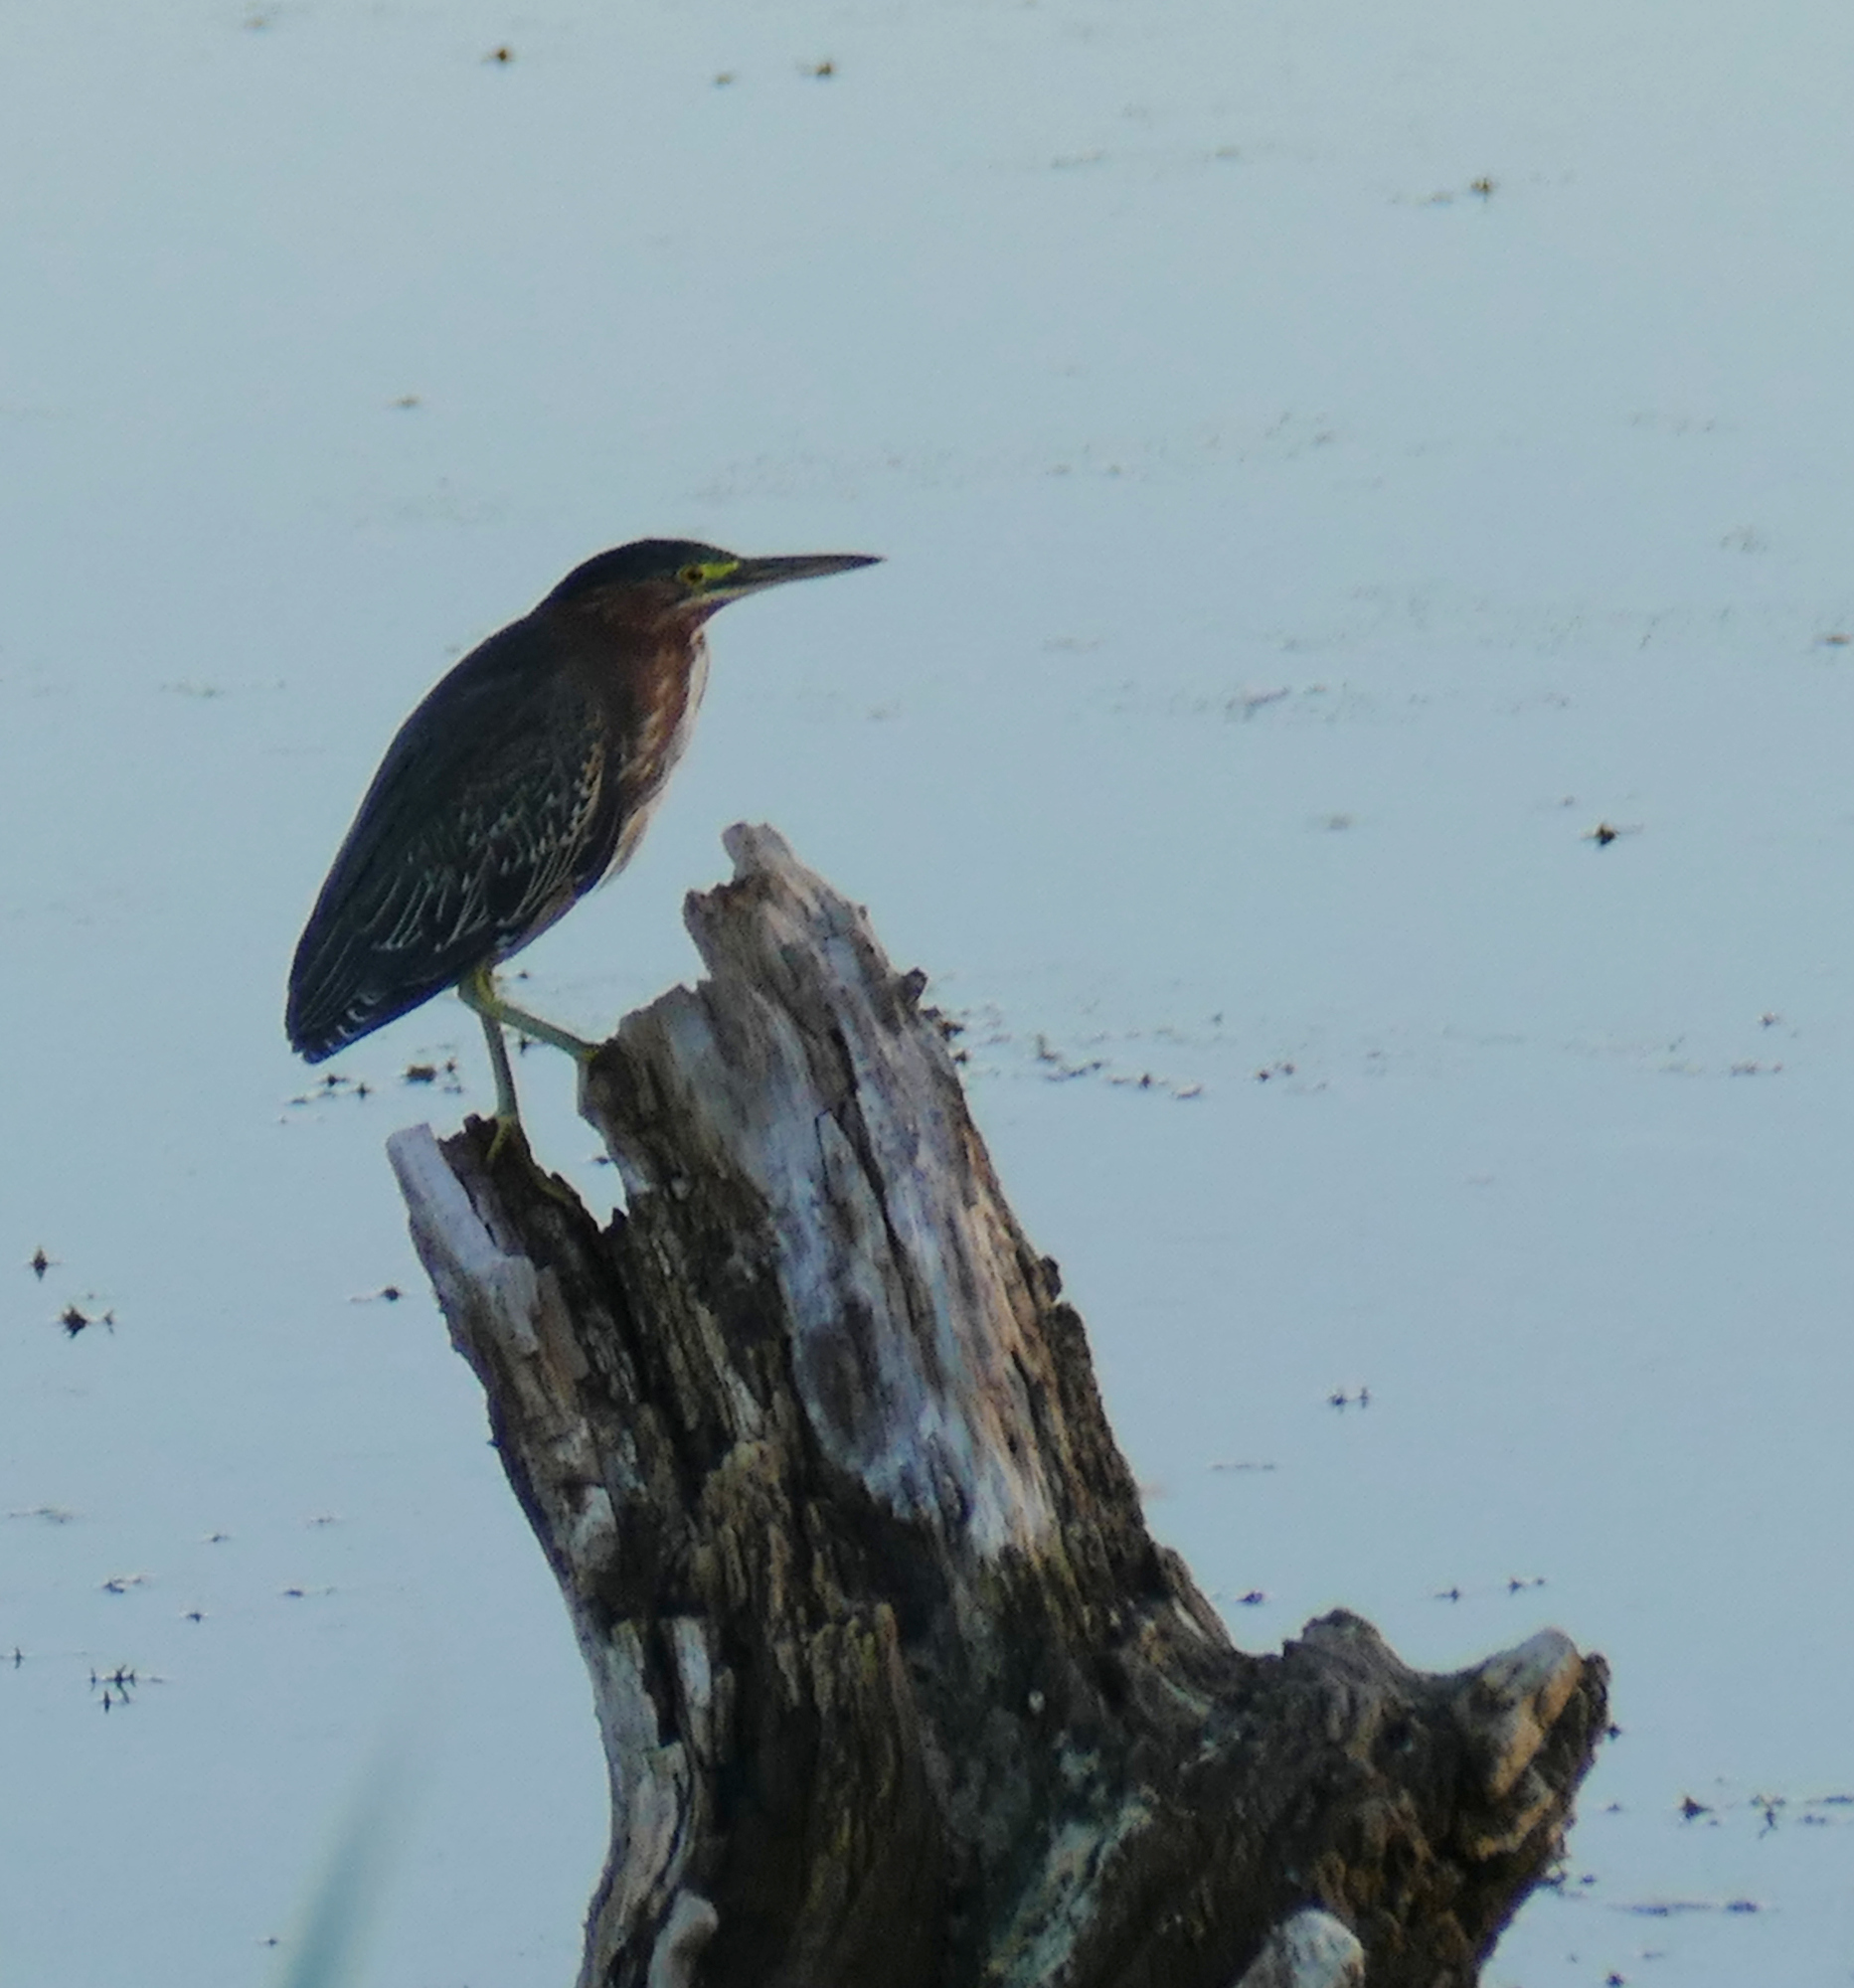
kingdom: Animalia
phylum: Chordata
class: Aves
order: Pelecaniformes
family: Ardeidae
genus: Butorides
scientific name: Butorides virescens
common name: Green heron
